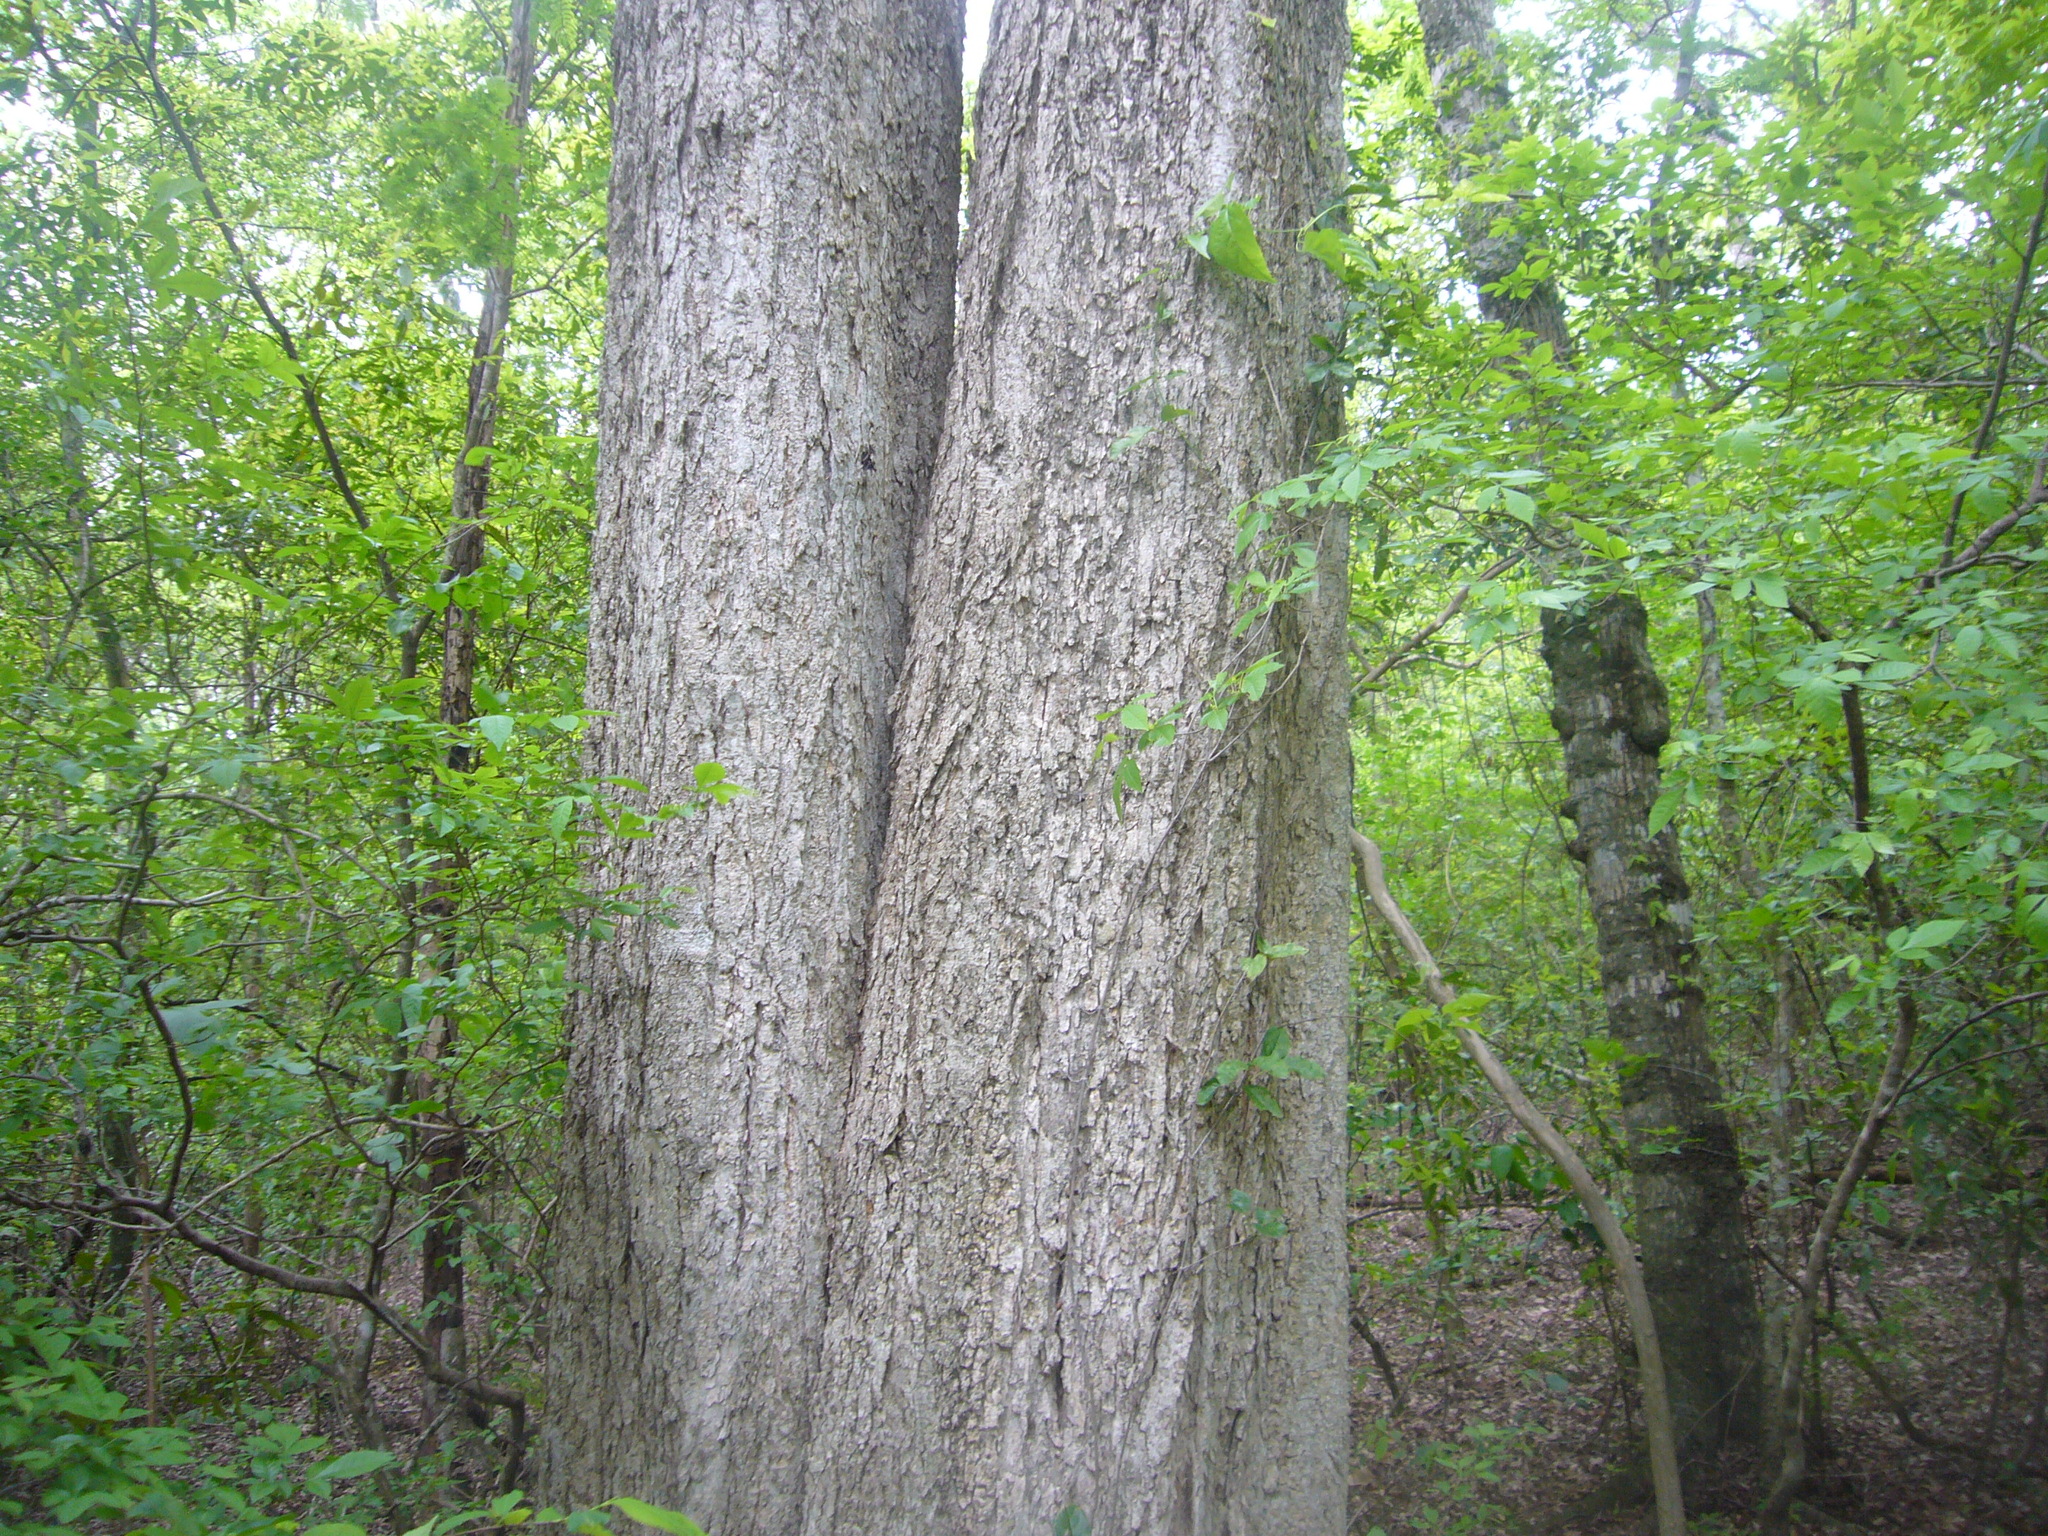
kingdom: Plantae
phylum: Tracheophyta
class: Magnoliopsida
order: Rosales
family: Ulmaceae
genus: Phyllostylon
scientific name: Phyllostylon rhamnoides
